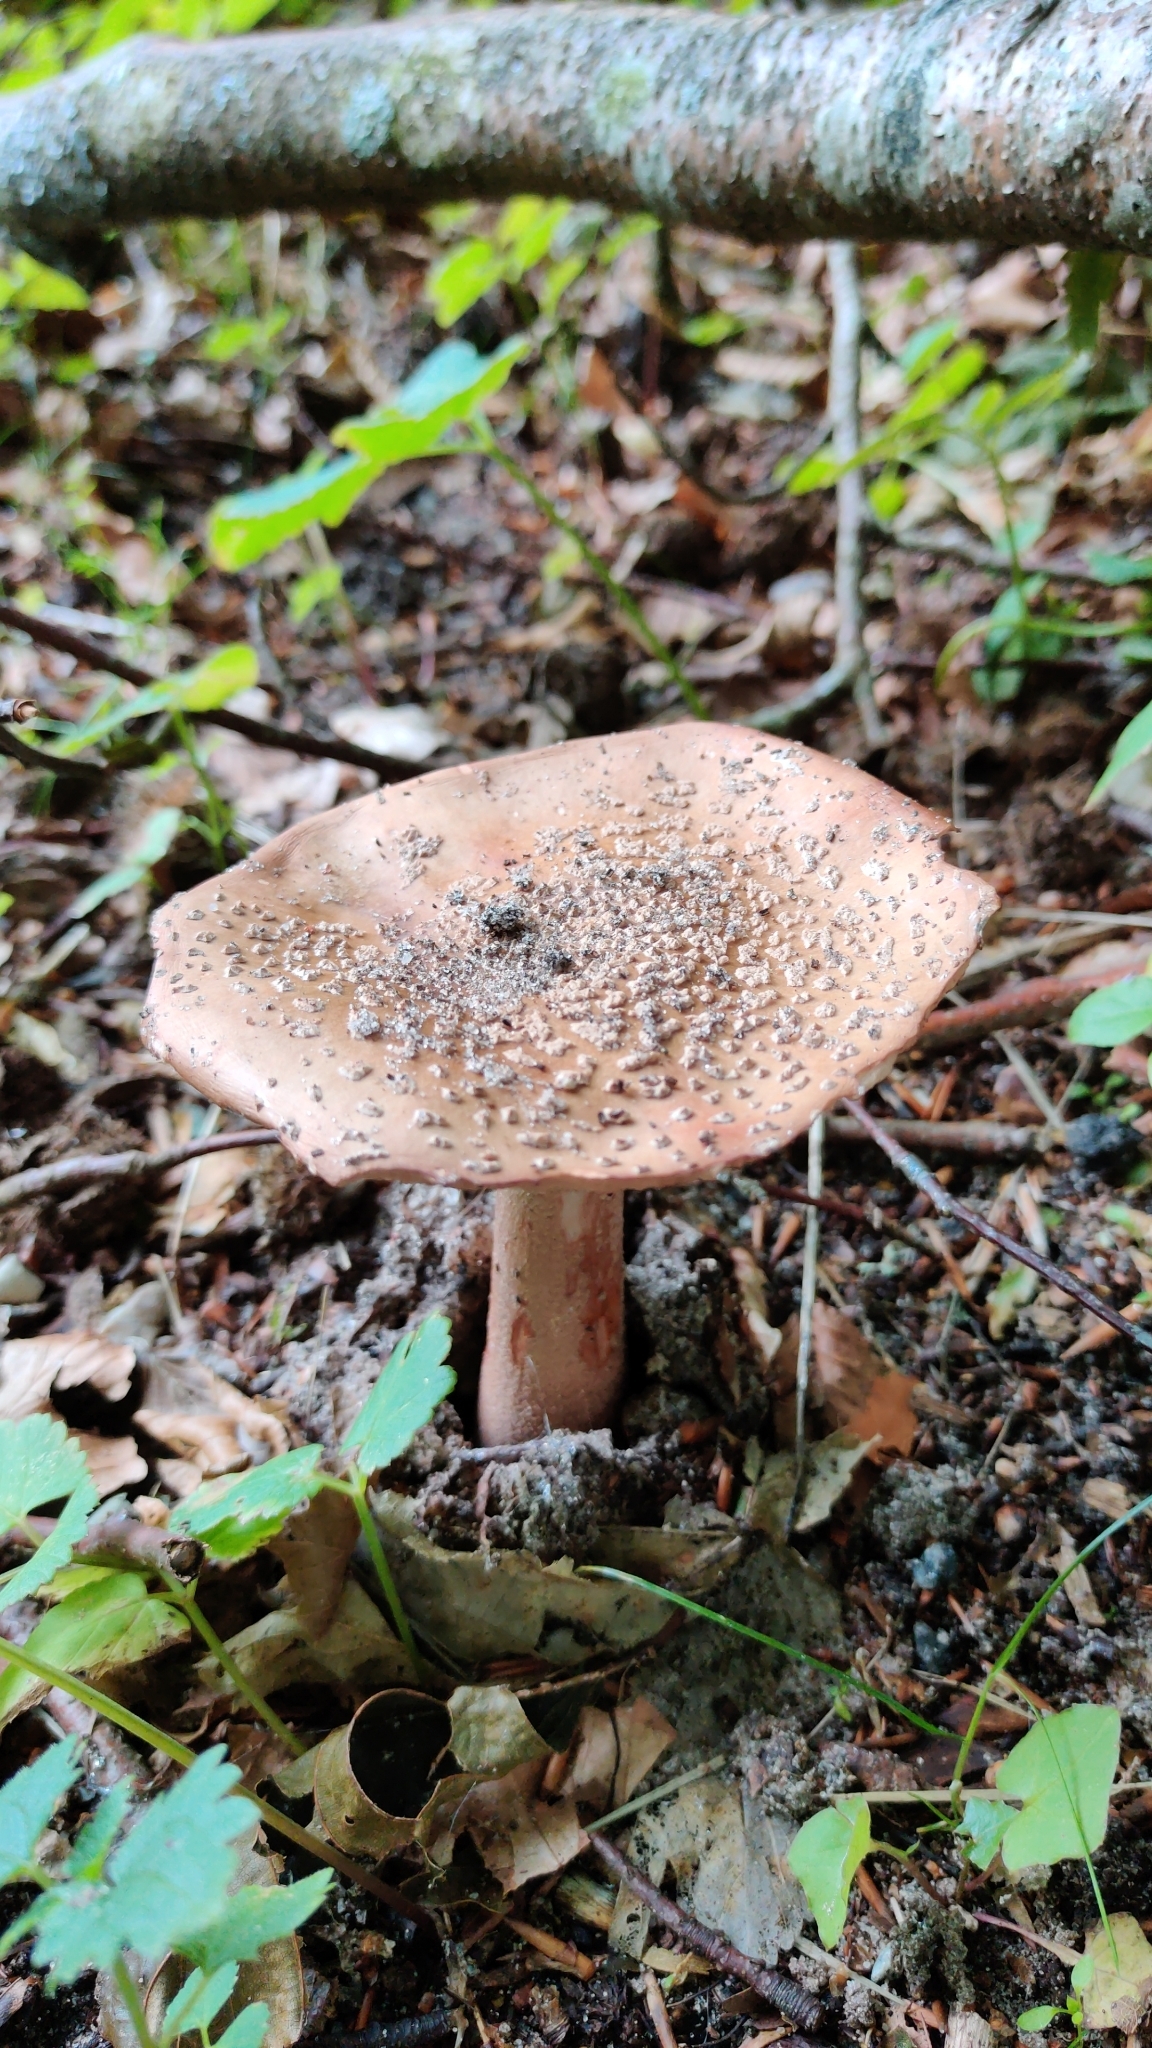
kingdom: Fungi
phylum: Basidiomycota
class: Agaricomycetes
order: Agaricales
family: Amanitaceae
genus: Amanita
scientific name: Amanita rubescens
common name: Blusher
